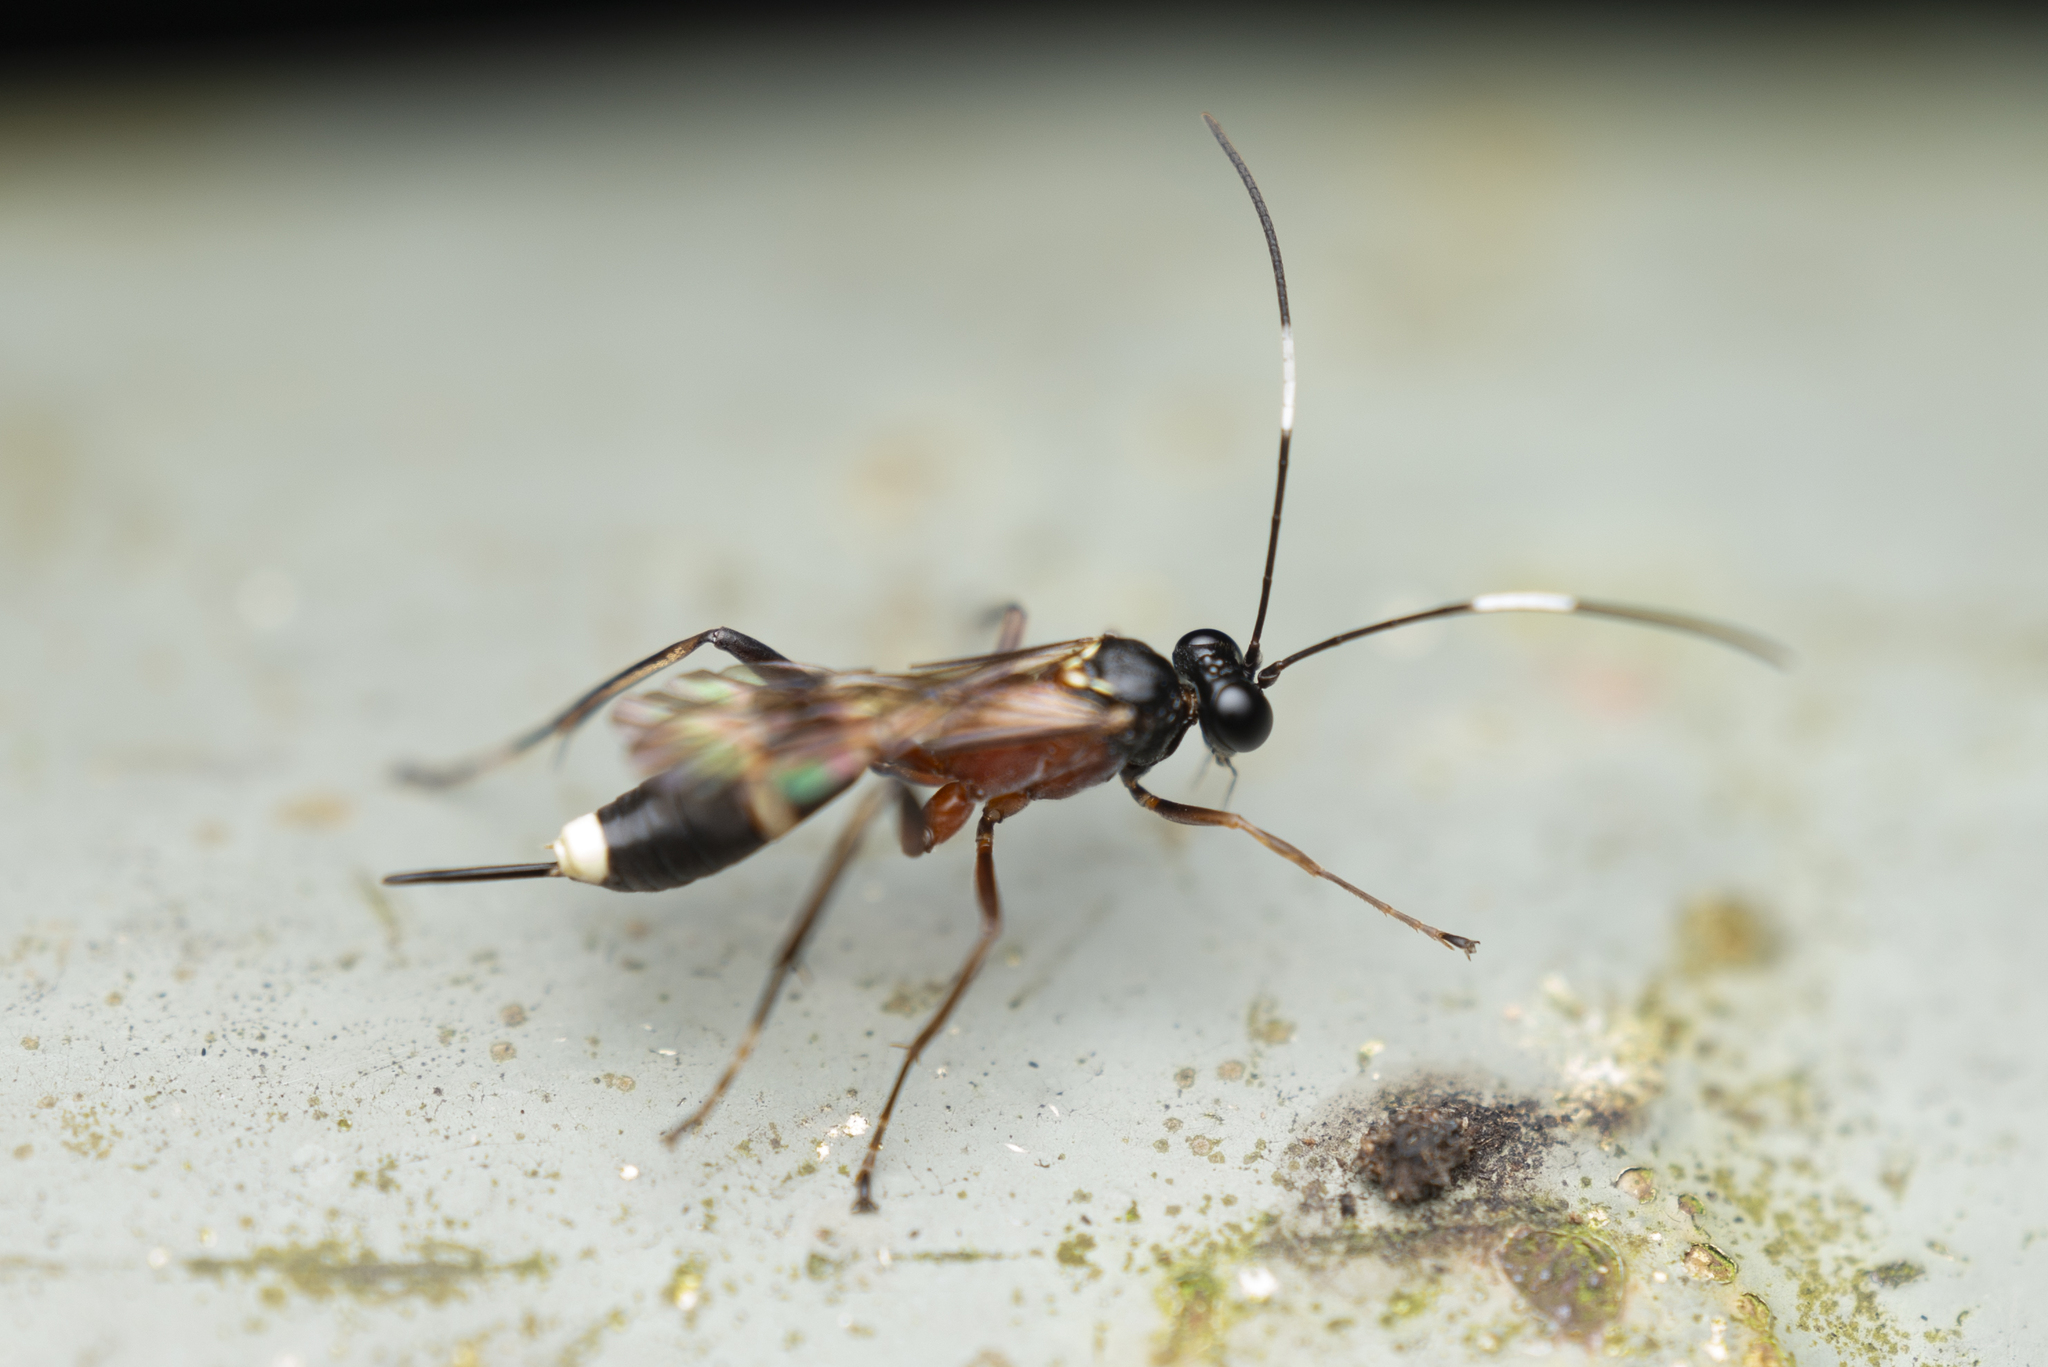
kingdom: Animalia
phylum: Arthropoda
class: Insecta
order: Hymenoptera
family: Ichneumonidae
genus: Goryphus
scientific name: Goryphus basalis
